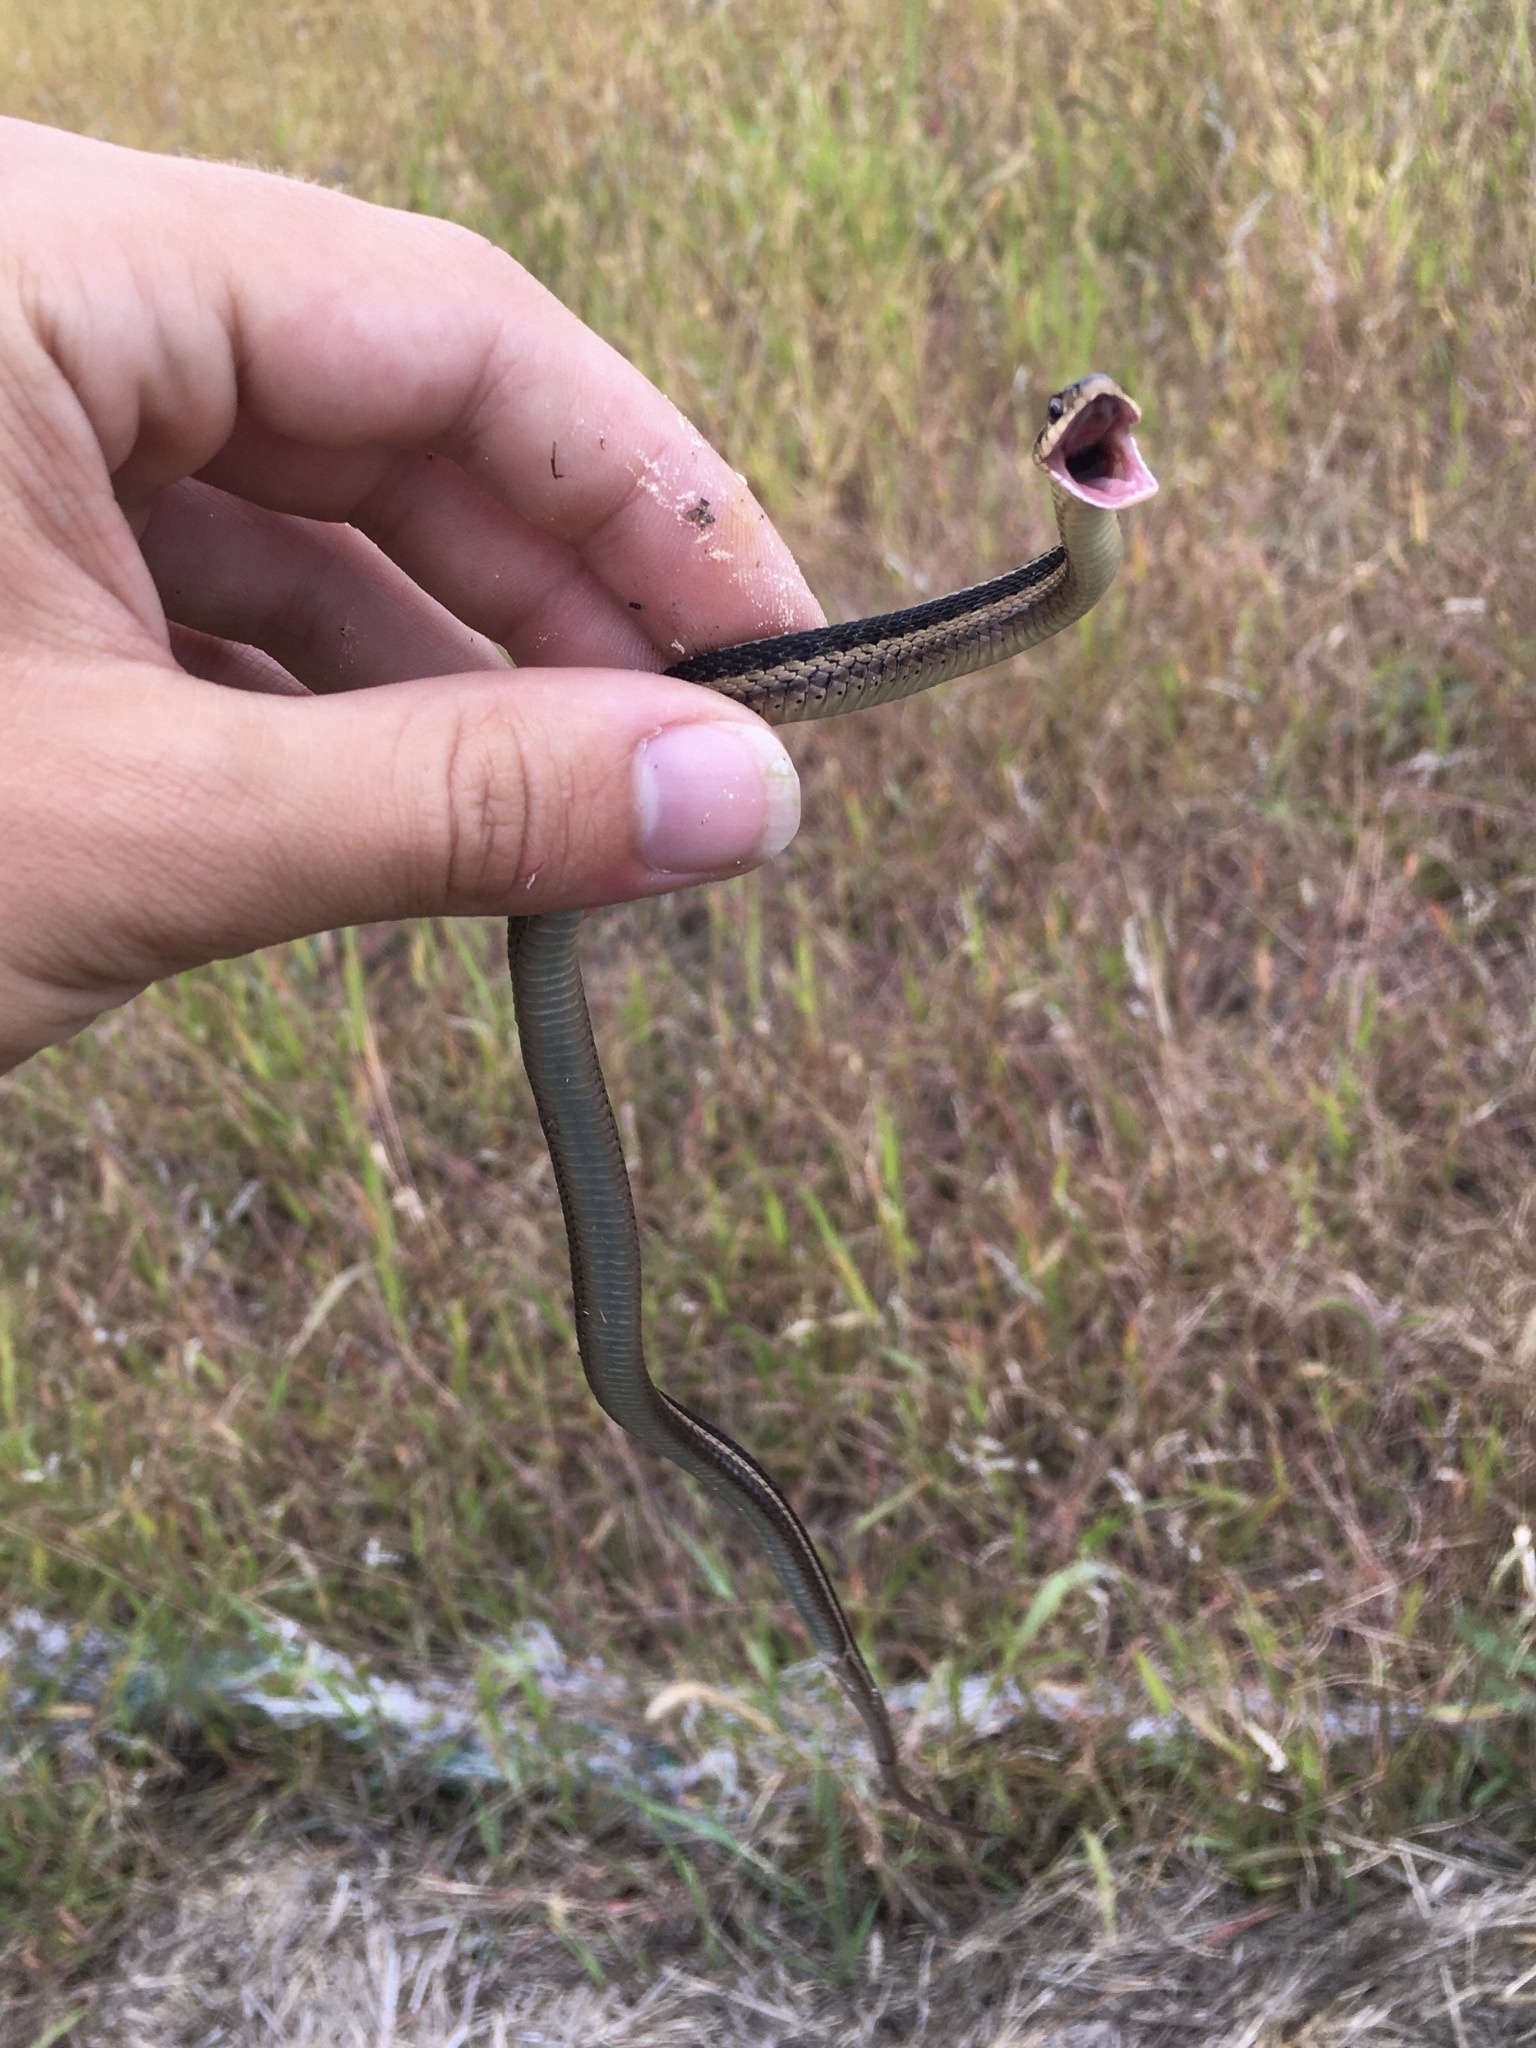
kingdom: Animalia
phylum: Chordata
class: Squamata
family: Colubridae
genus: Thamnophis
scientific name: Thamnophis sirtalis
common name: Common garter snake
